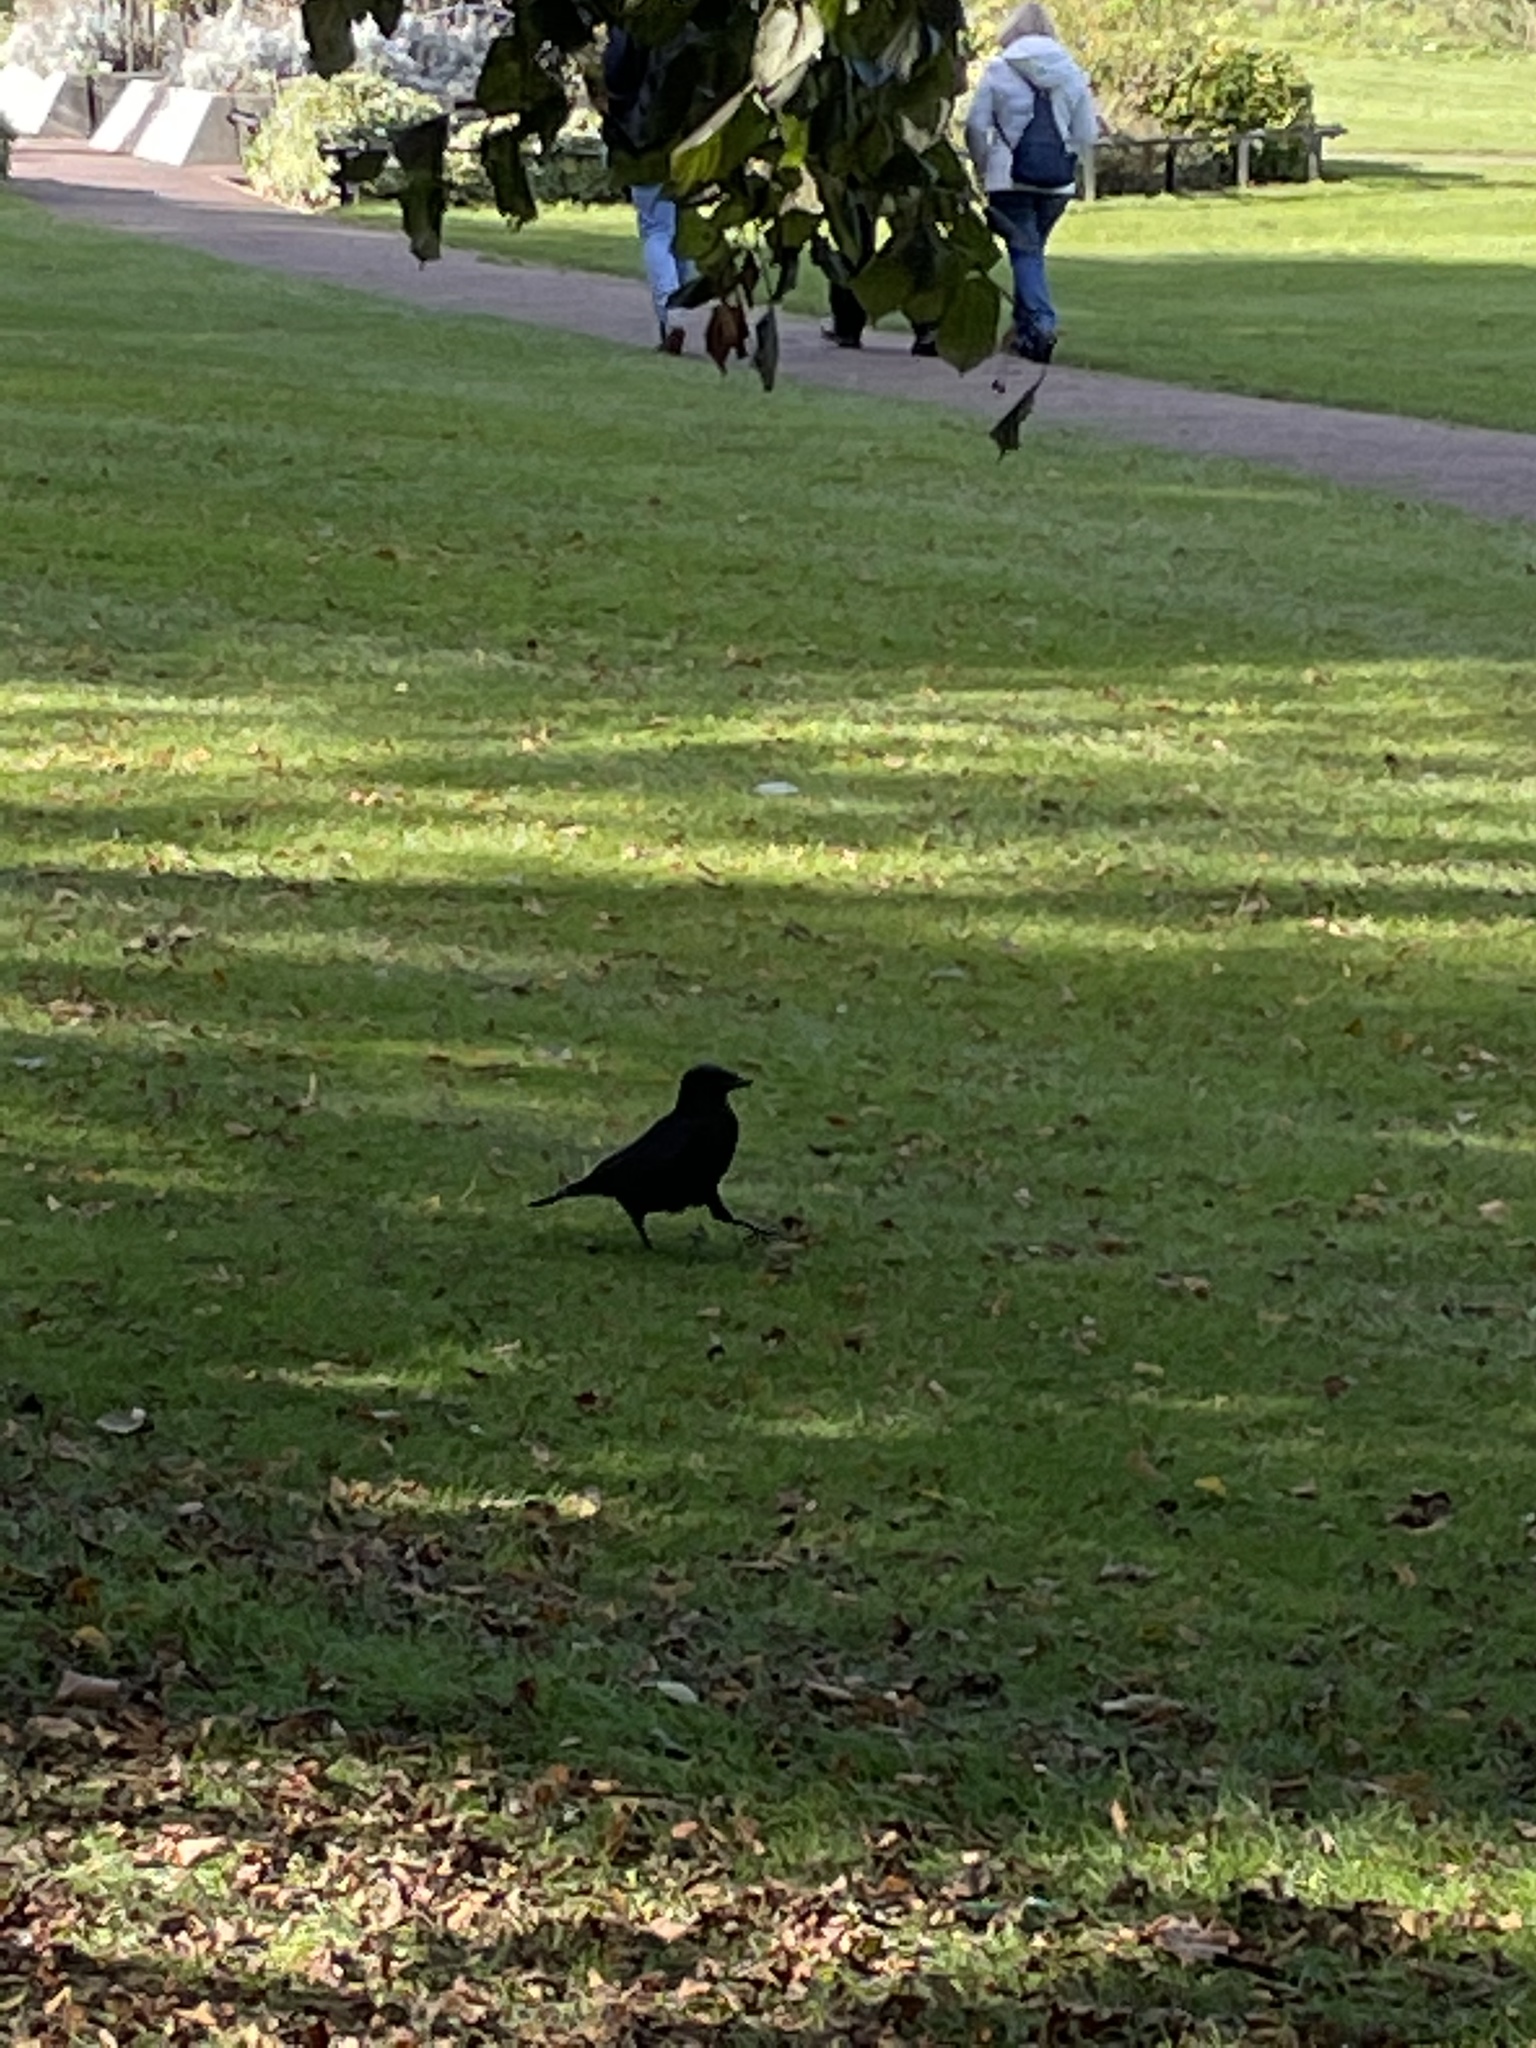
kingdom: Animalia
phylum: Chordata
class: Aves
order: Passeriformes
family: Corvidae
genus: Corvus
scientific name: Corvus corone
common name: Carrion crow
